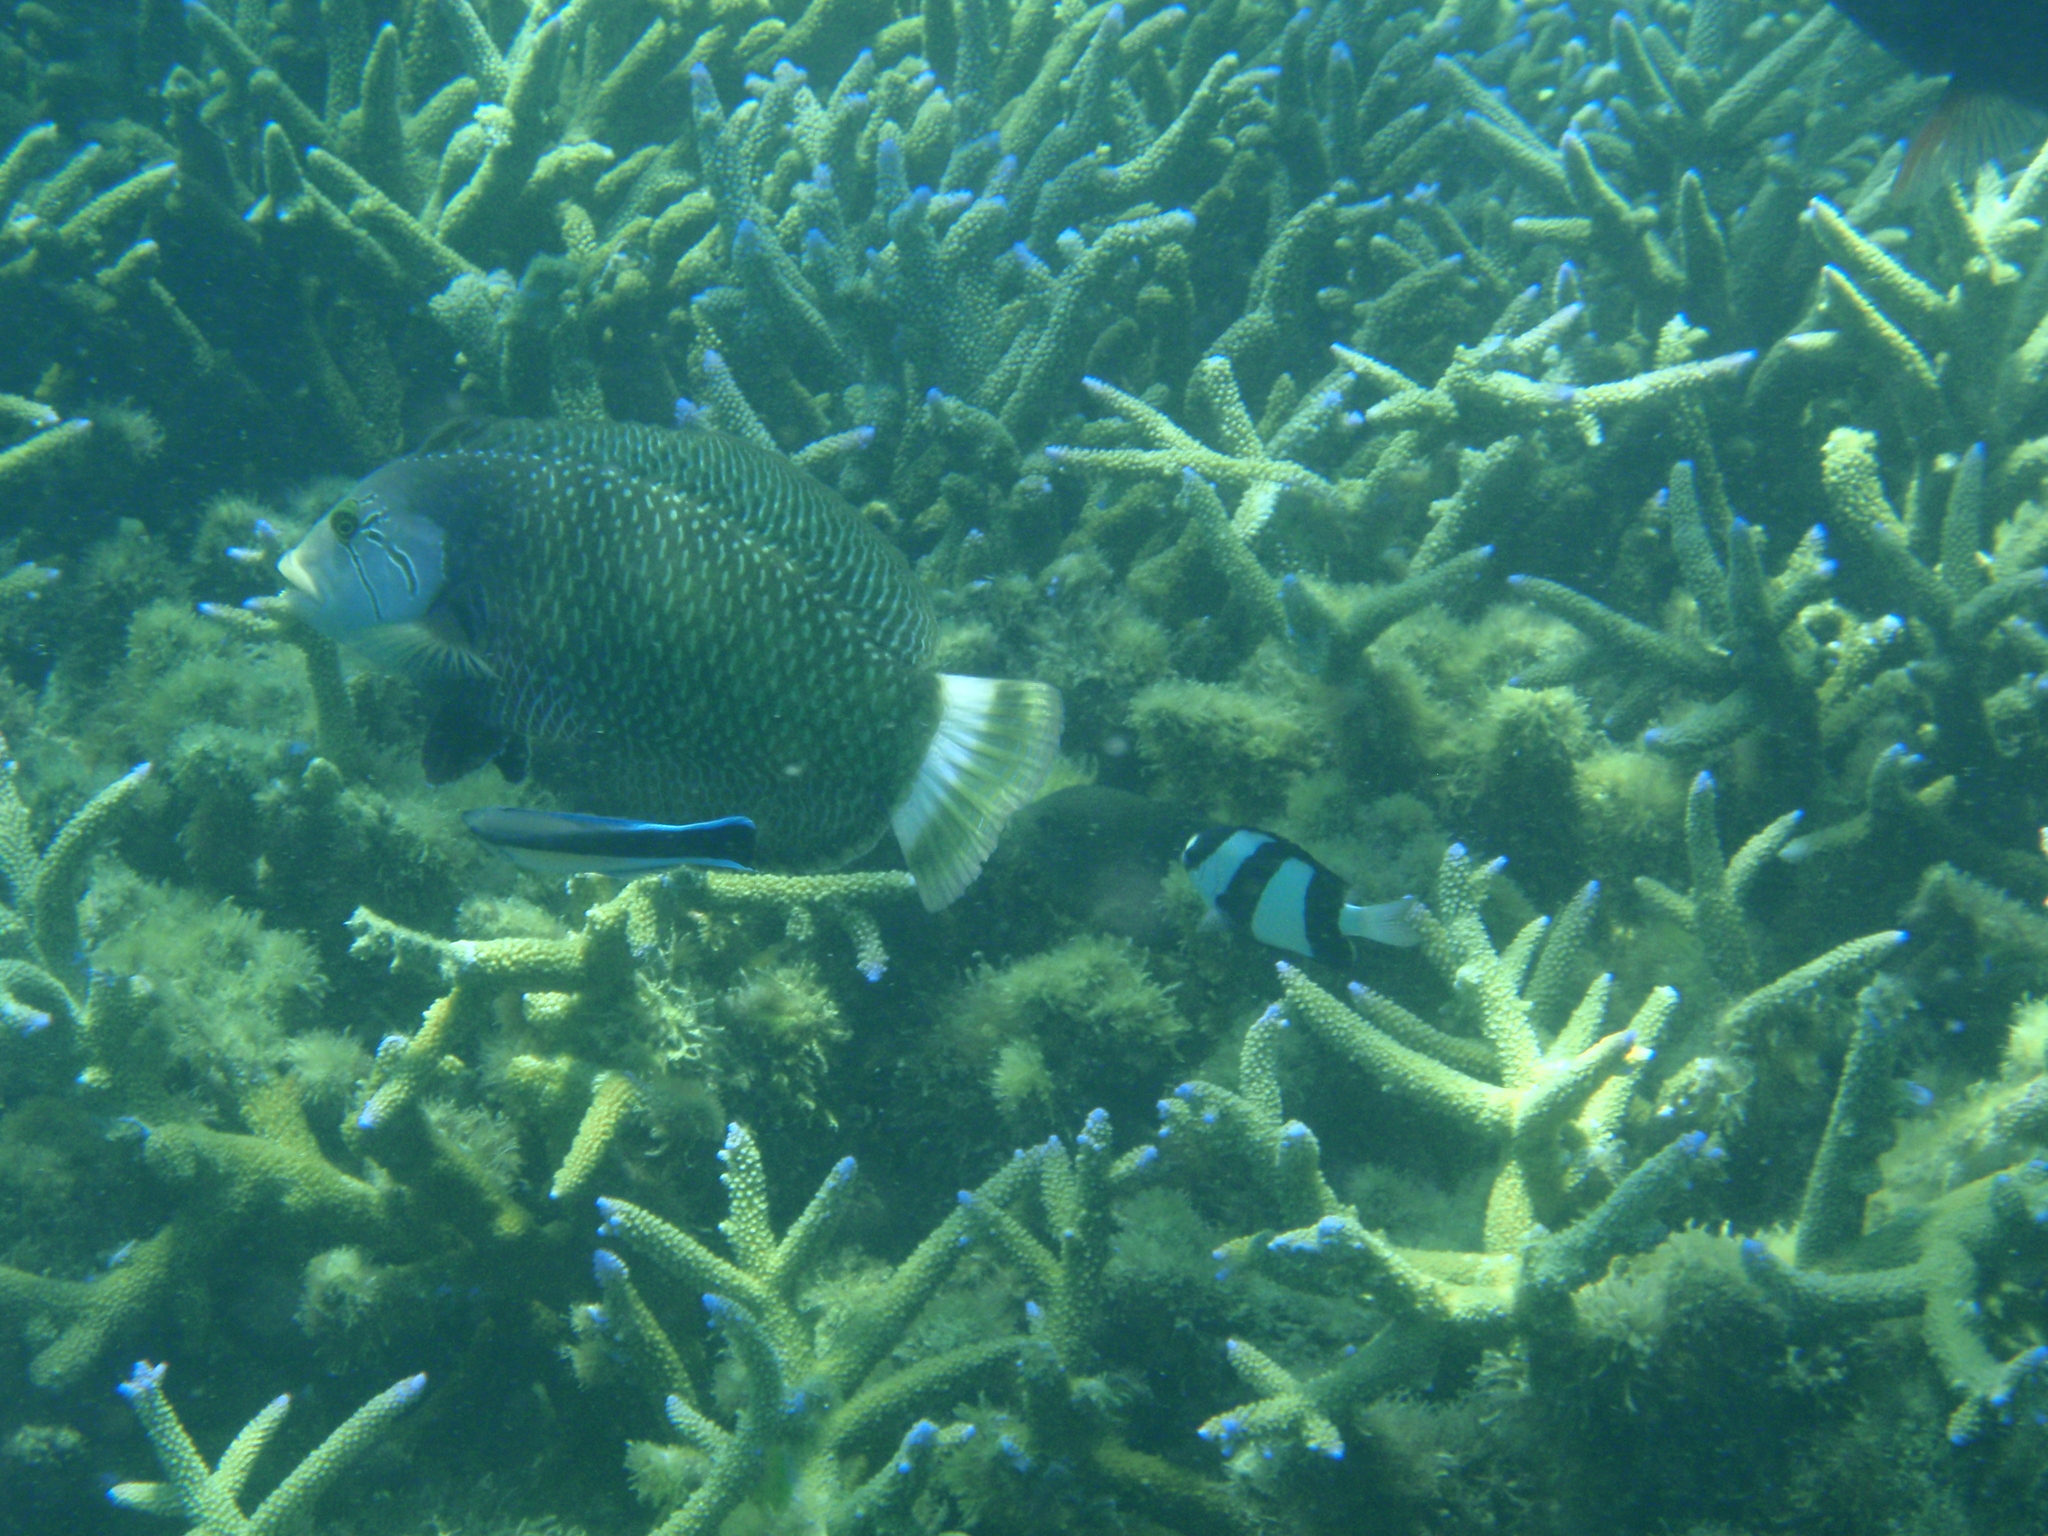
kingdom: Animalia
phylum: Chordata
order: Perciformes
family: Labridae
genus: Novaculichthys
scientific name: Novaculichthys taeniourus
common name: Rockmover wrasse
